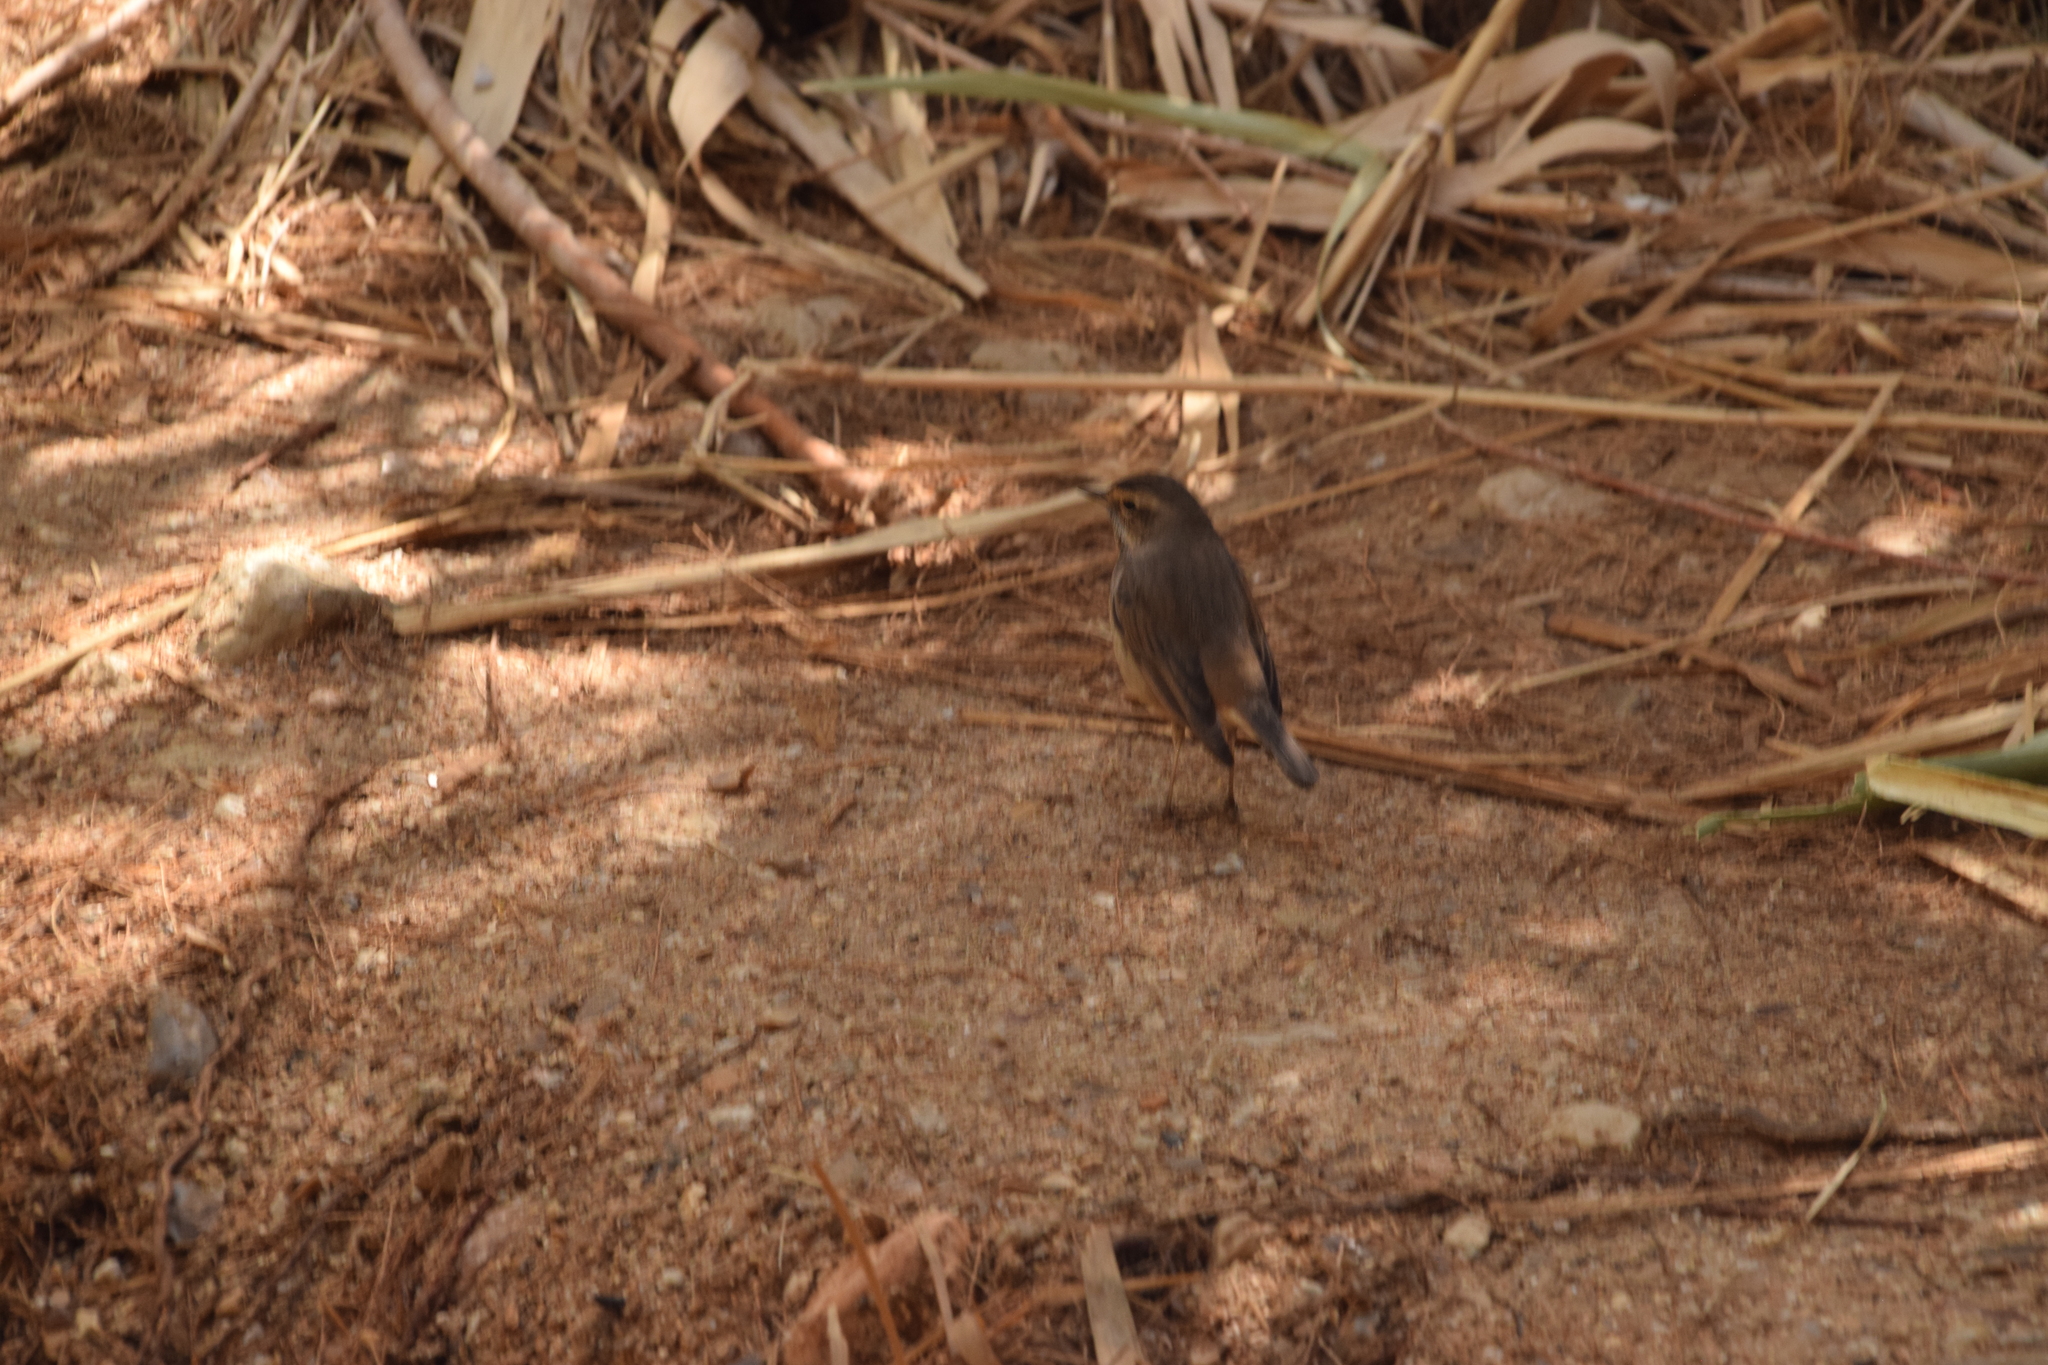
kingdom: Animalia
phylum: Chordata
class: Aves
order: Passeriformes
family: Muscicapidae
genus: Luscinia
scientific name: Luscinia svecica
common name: Bluethroat
